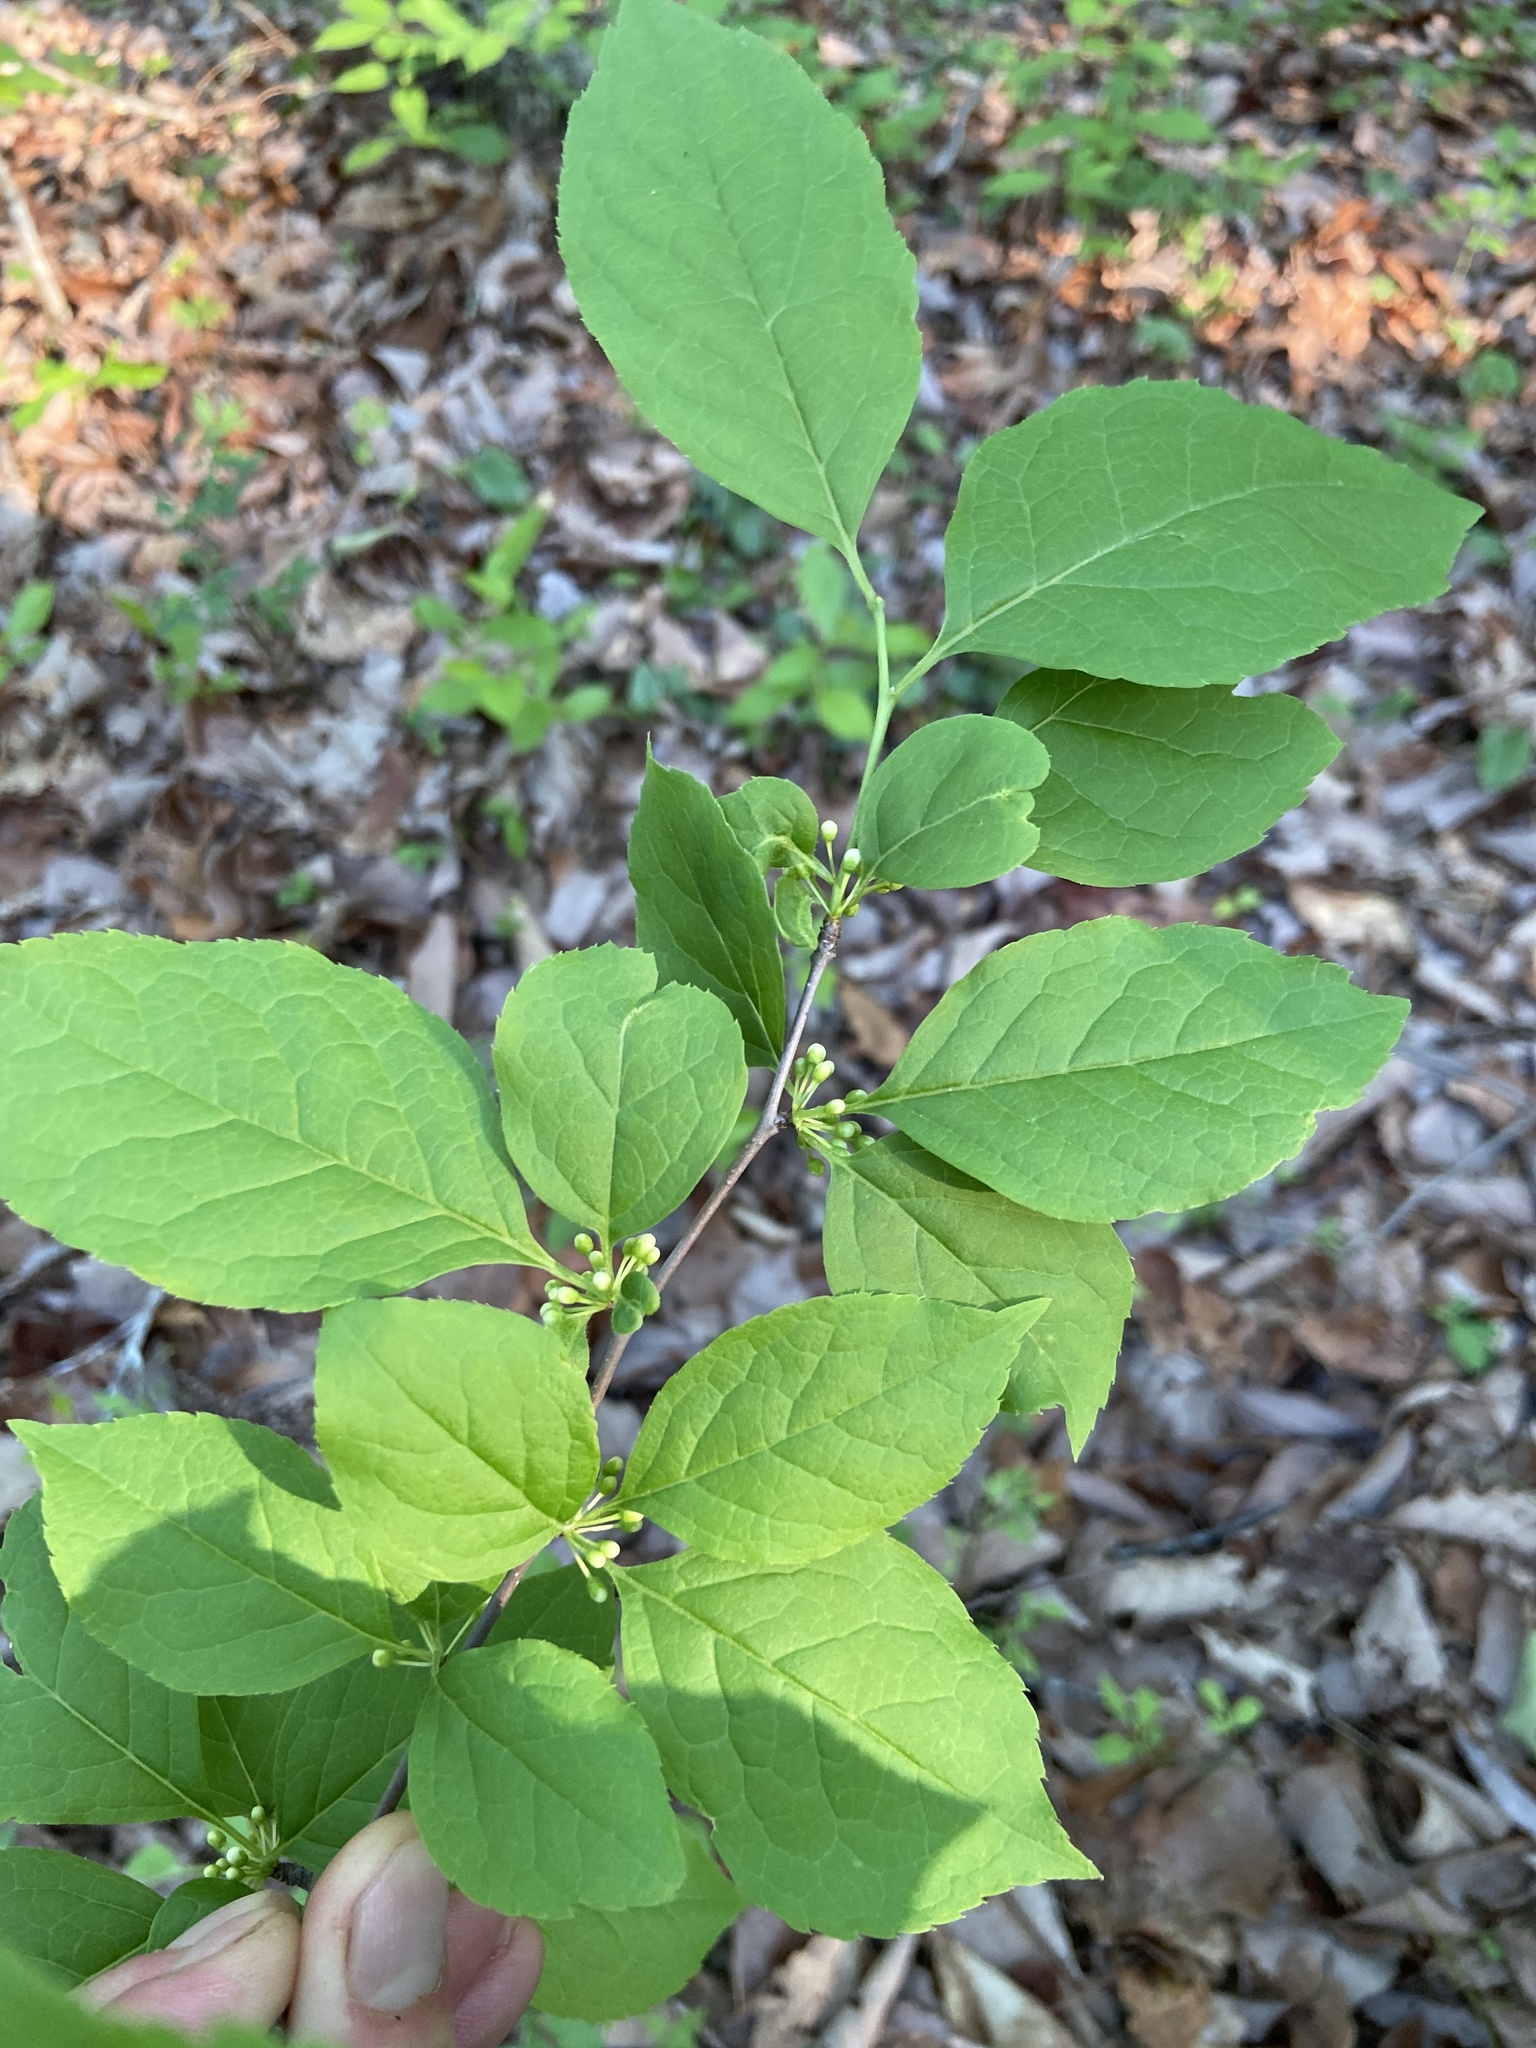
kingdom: Plantae
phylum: Tracheophyta
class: Magnoliopsida
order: Aquifoliales
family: Aquifoliaceae
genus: Ilex
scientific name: Ilex ambigua
